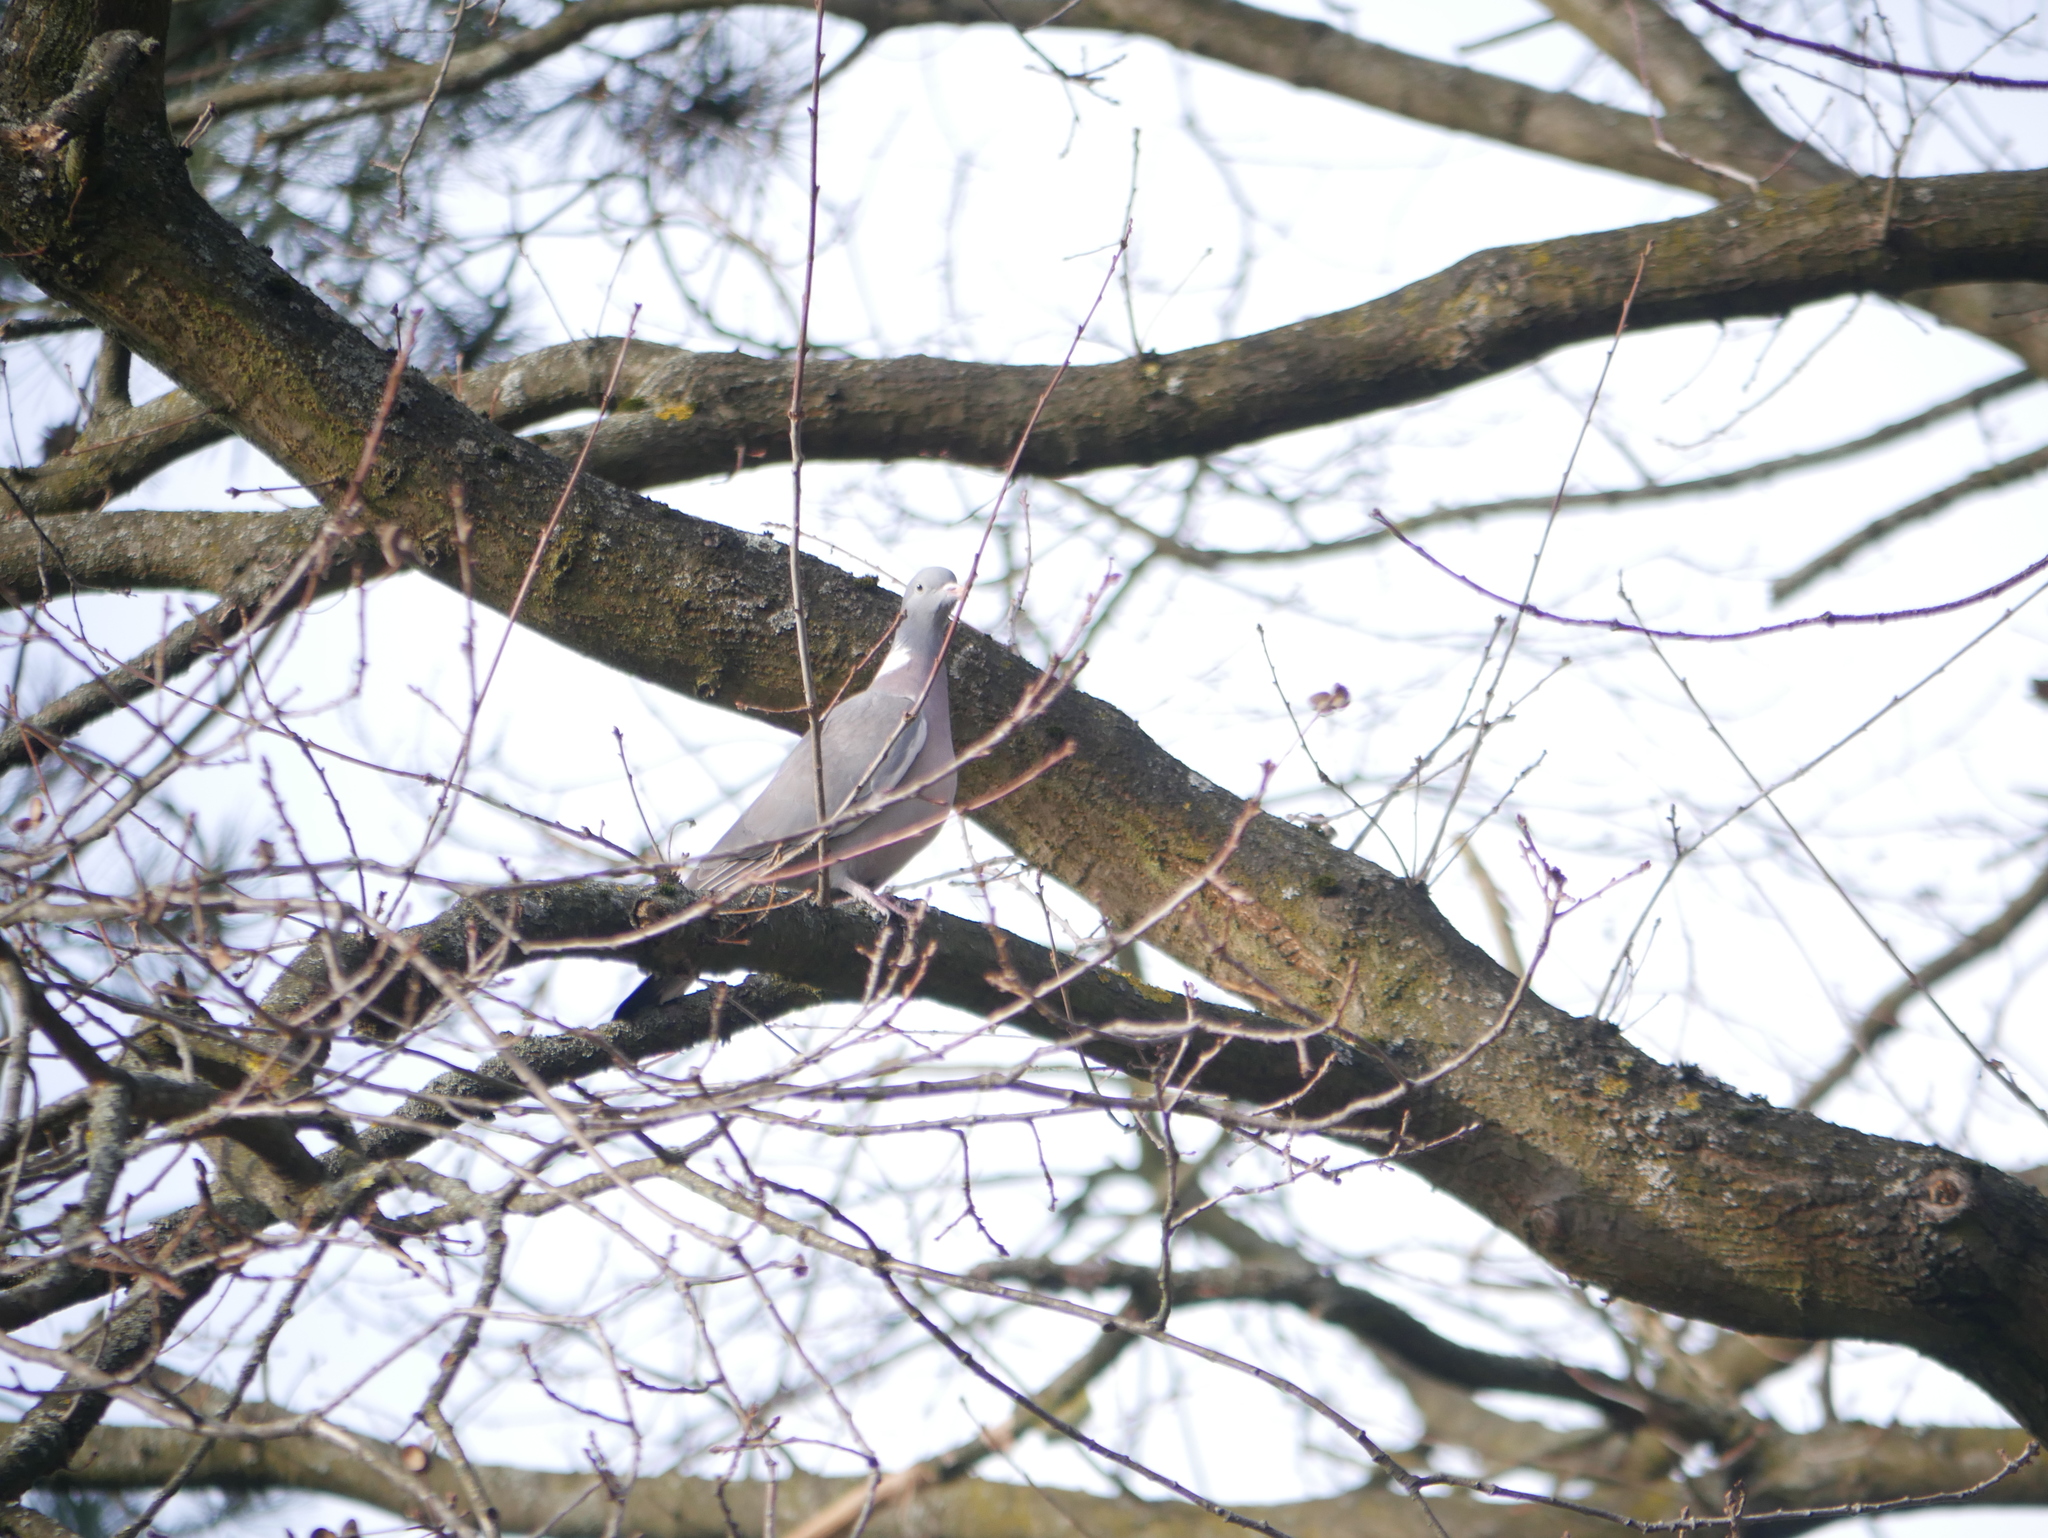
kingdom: Animalia
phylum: Chordata
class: Aves
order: Columbiformes
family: Columbidae
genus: Columba
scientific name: Columba palumbus
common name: Common wood pigeon
